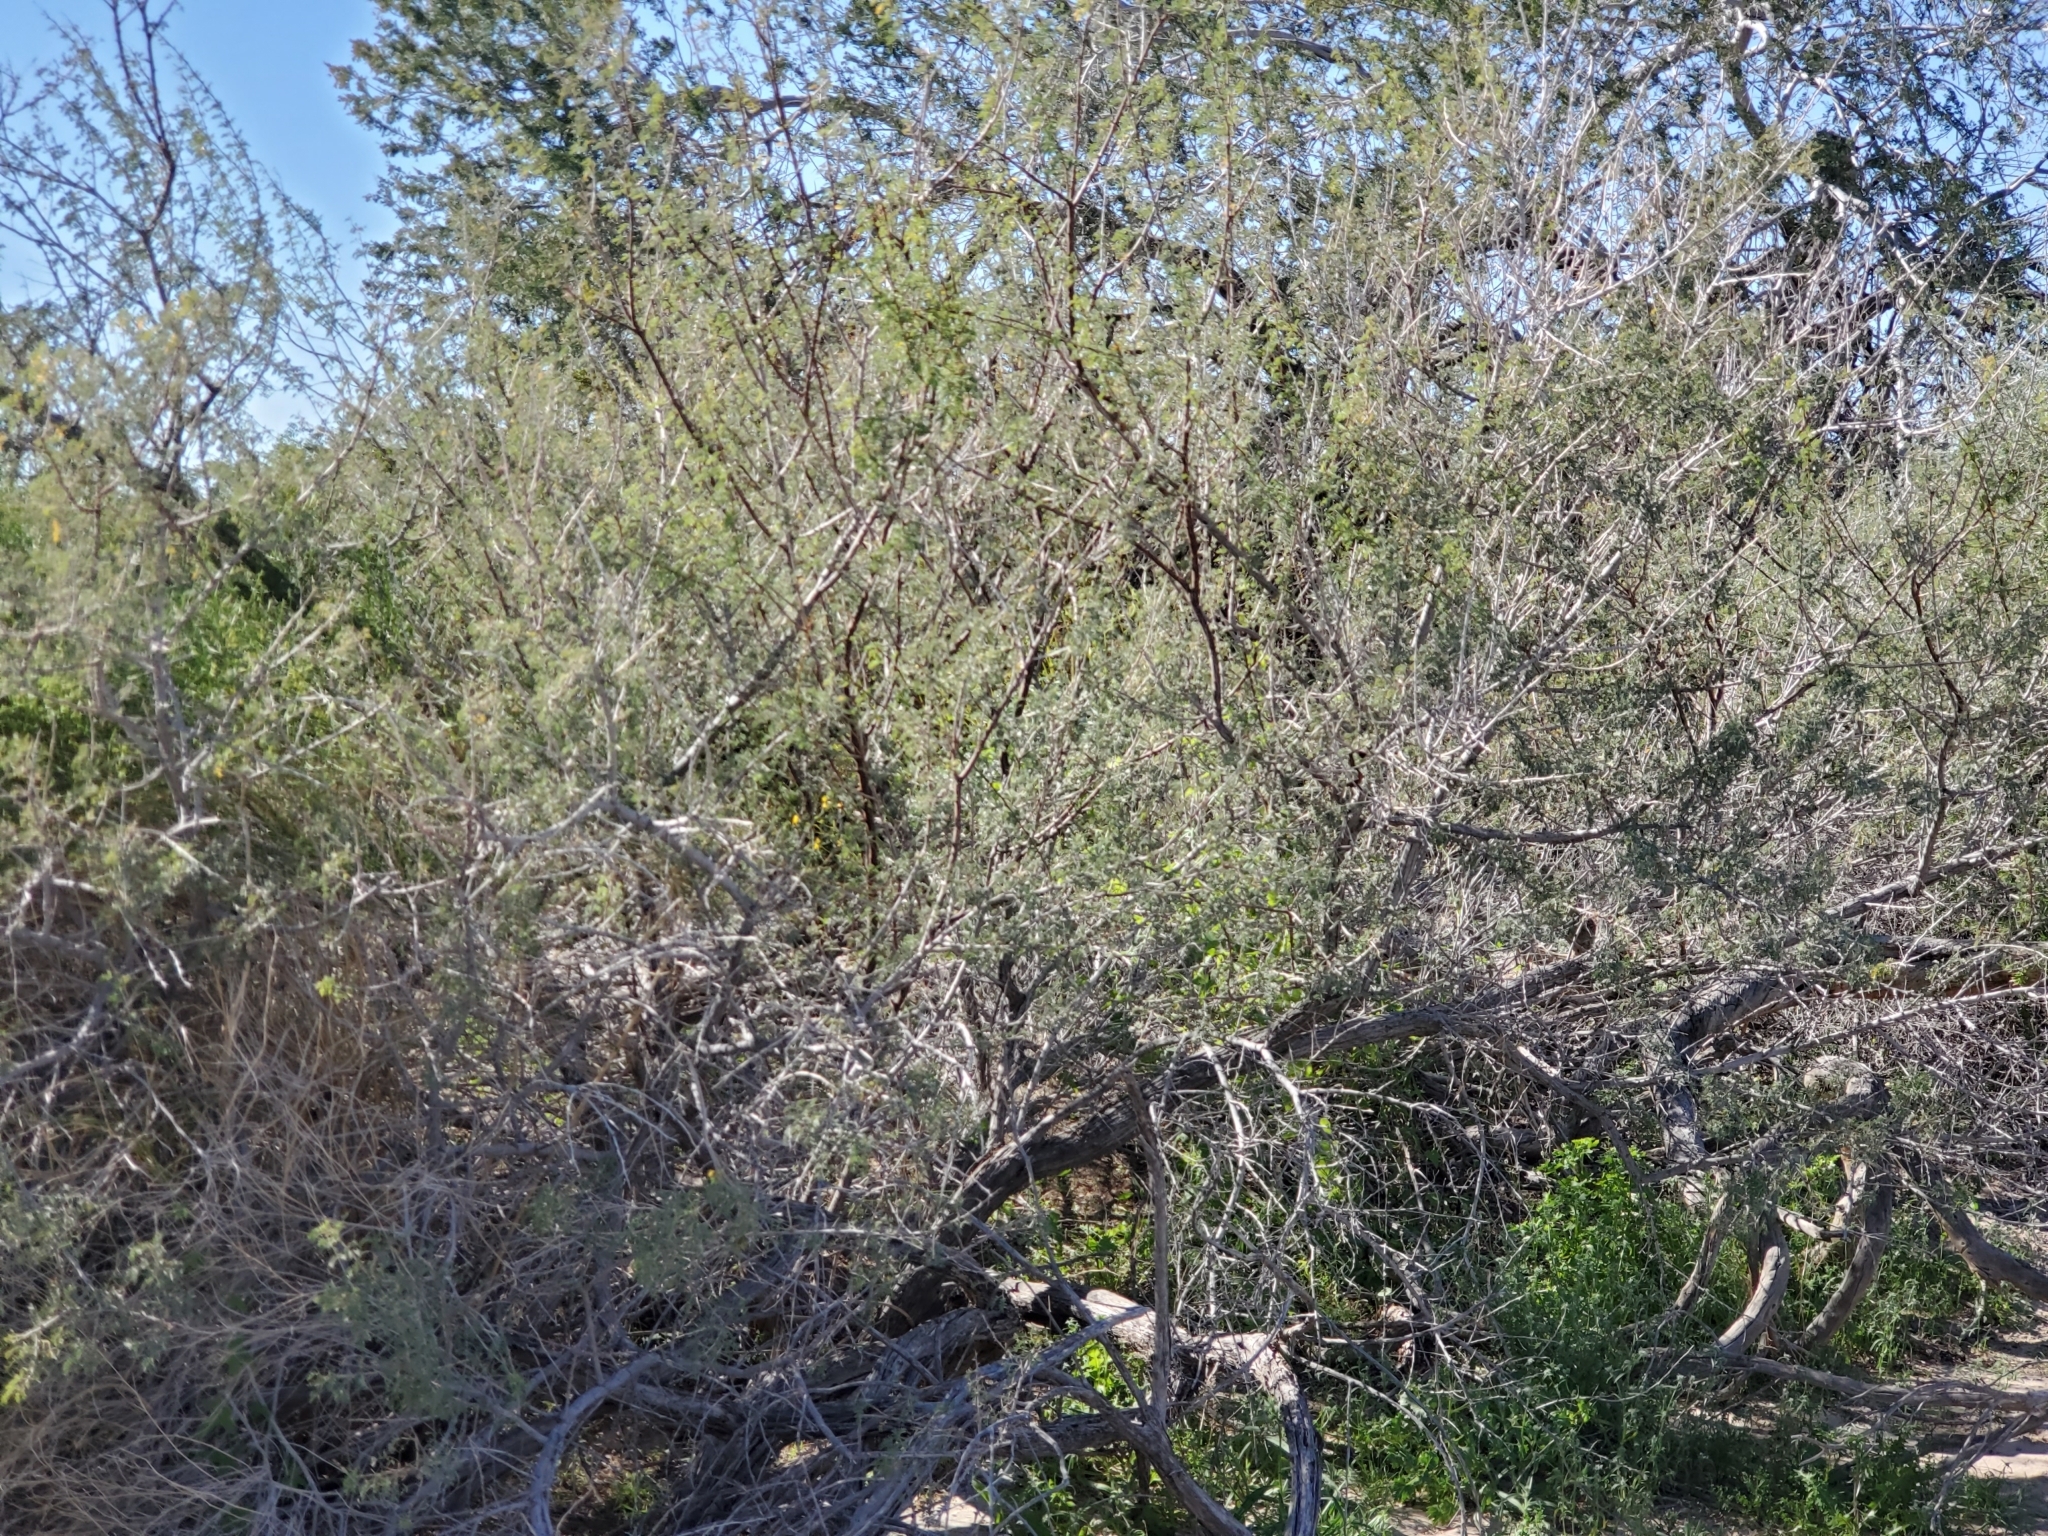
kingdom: Plantae
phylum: Tracheophyta
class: Magnoliopsida
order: Fabales
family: Fabaceae
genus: Senegalia
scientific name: Senegalia greggii
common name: Texas-mimosa
